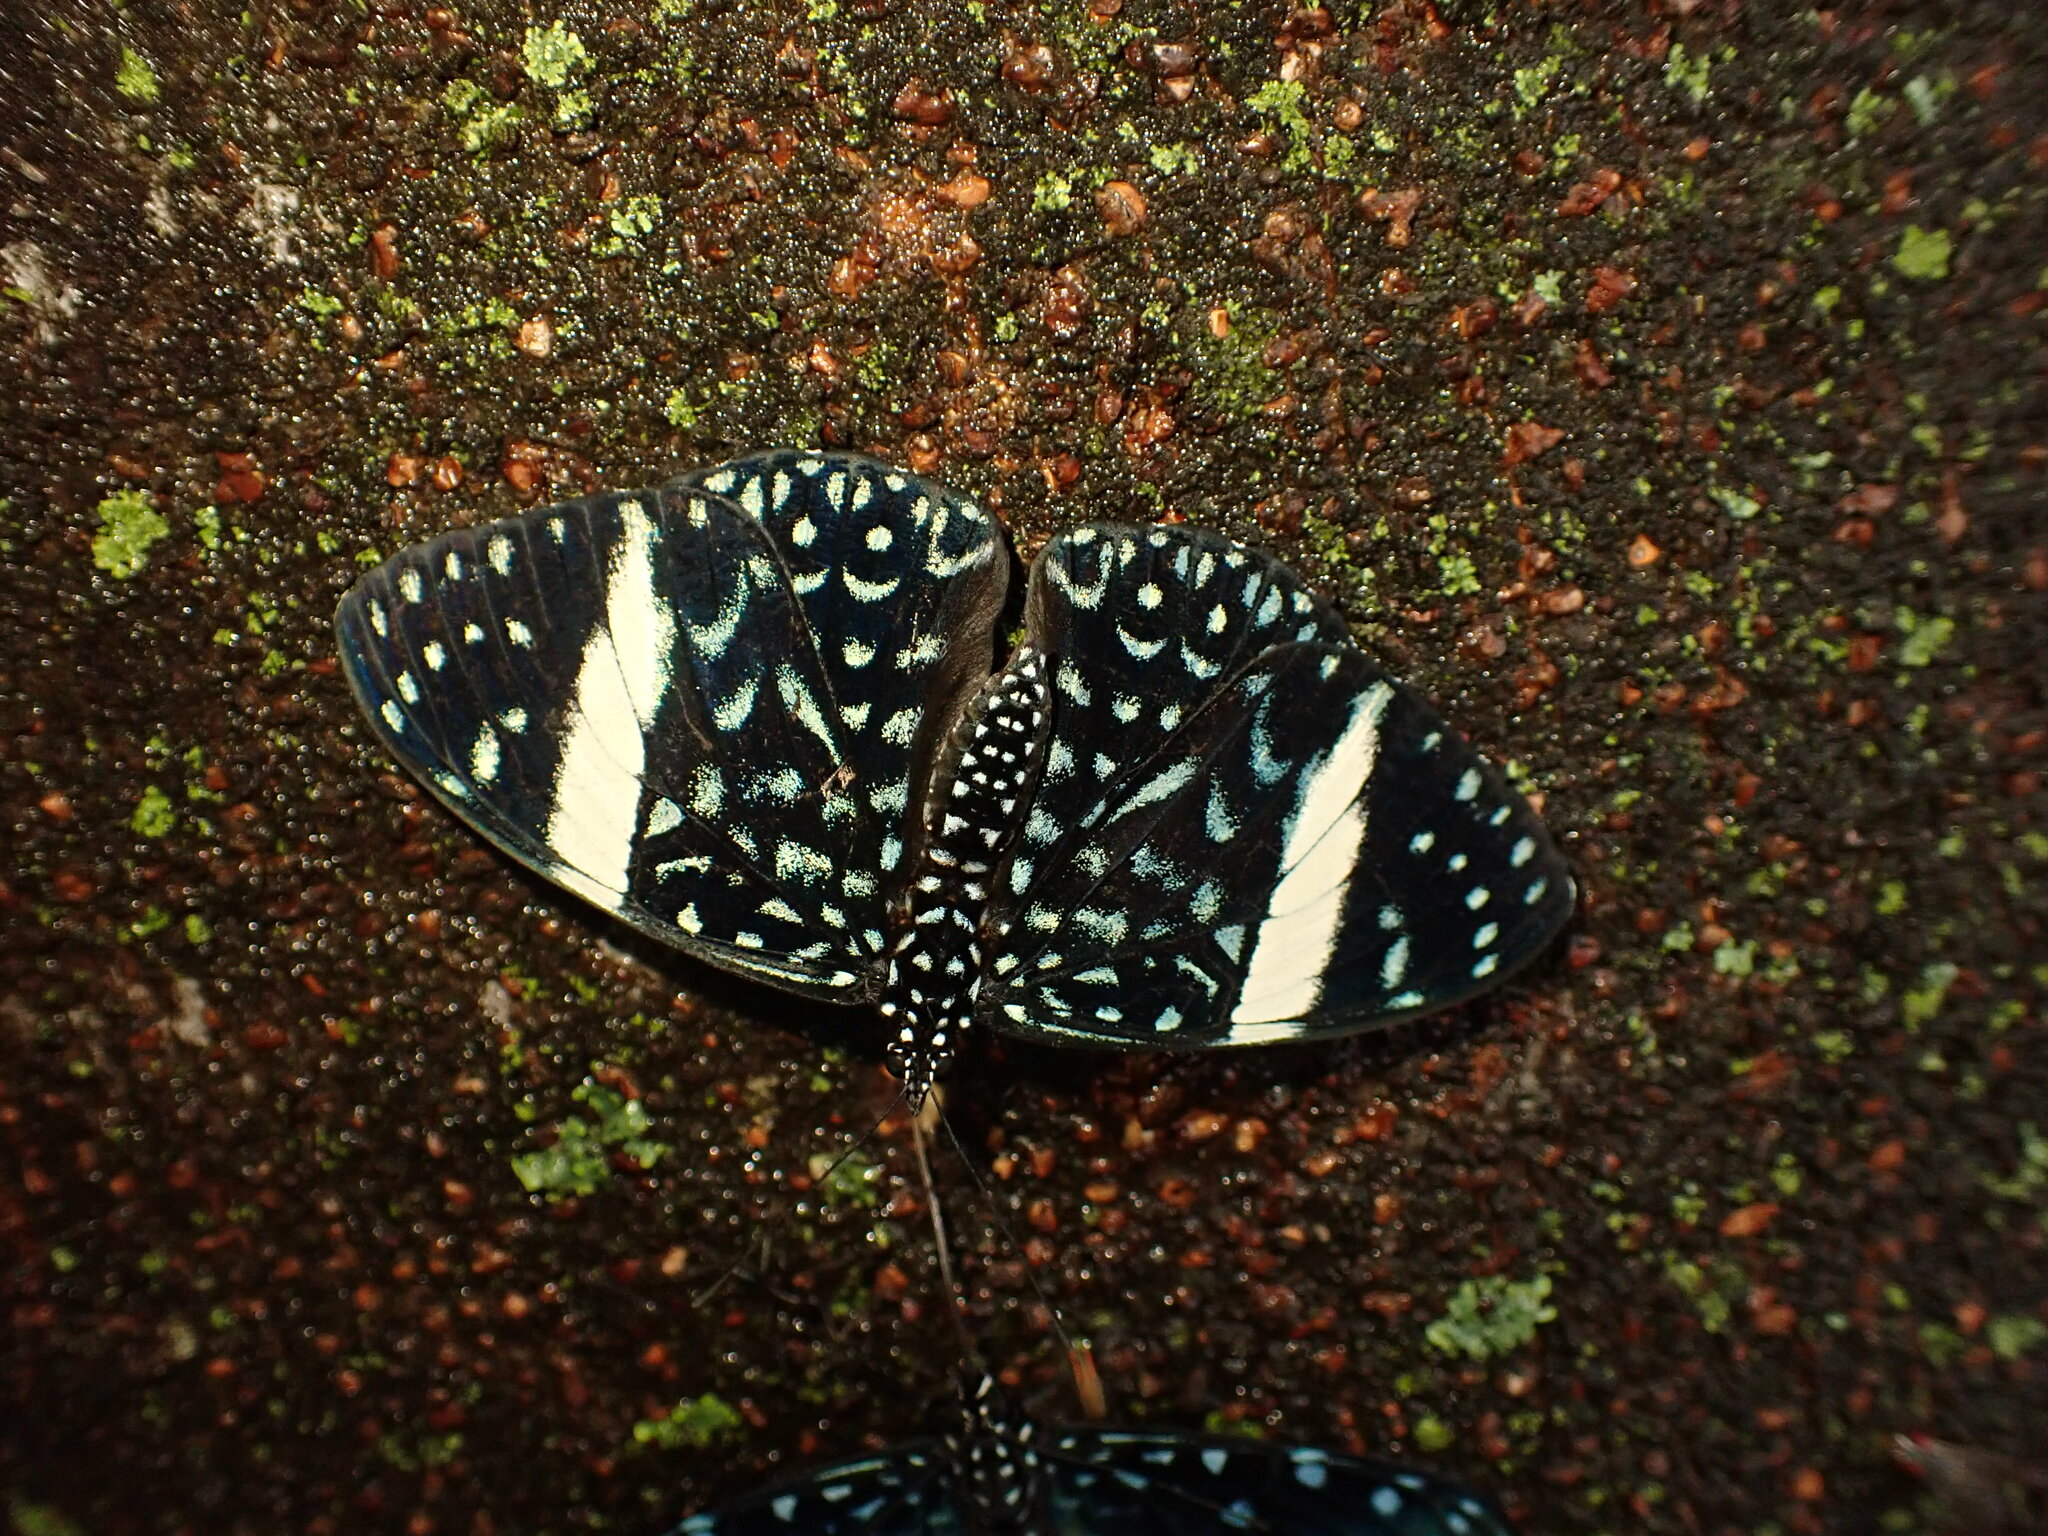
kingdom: Animalia
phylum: Arthropoda
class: Insecta
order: Lepidoptera
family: Nymphalidae
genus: Hamadryas
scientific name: Hamadryas laodamia
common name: Starry night cracker
